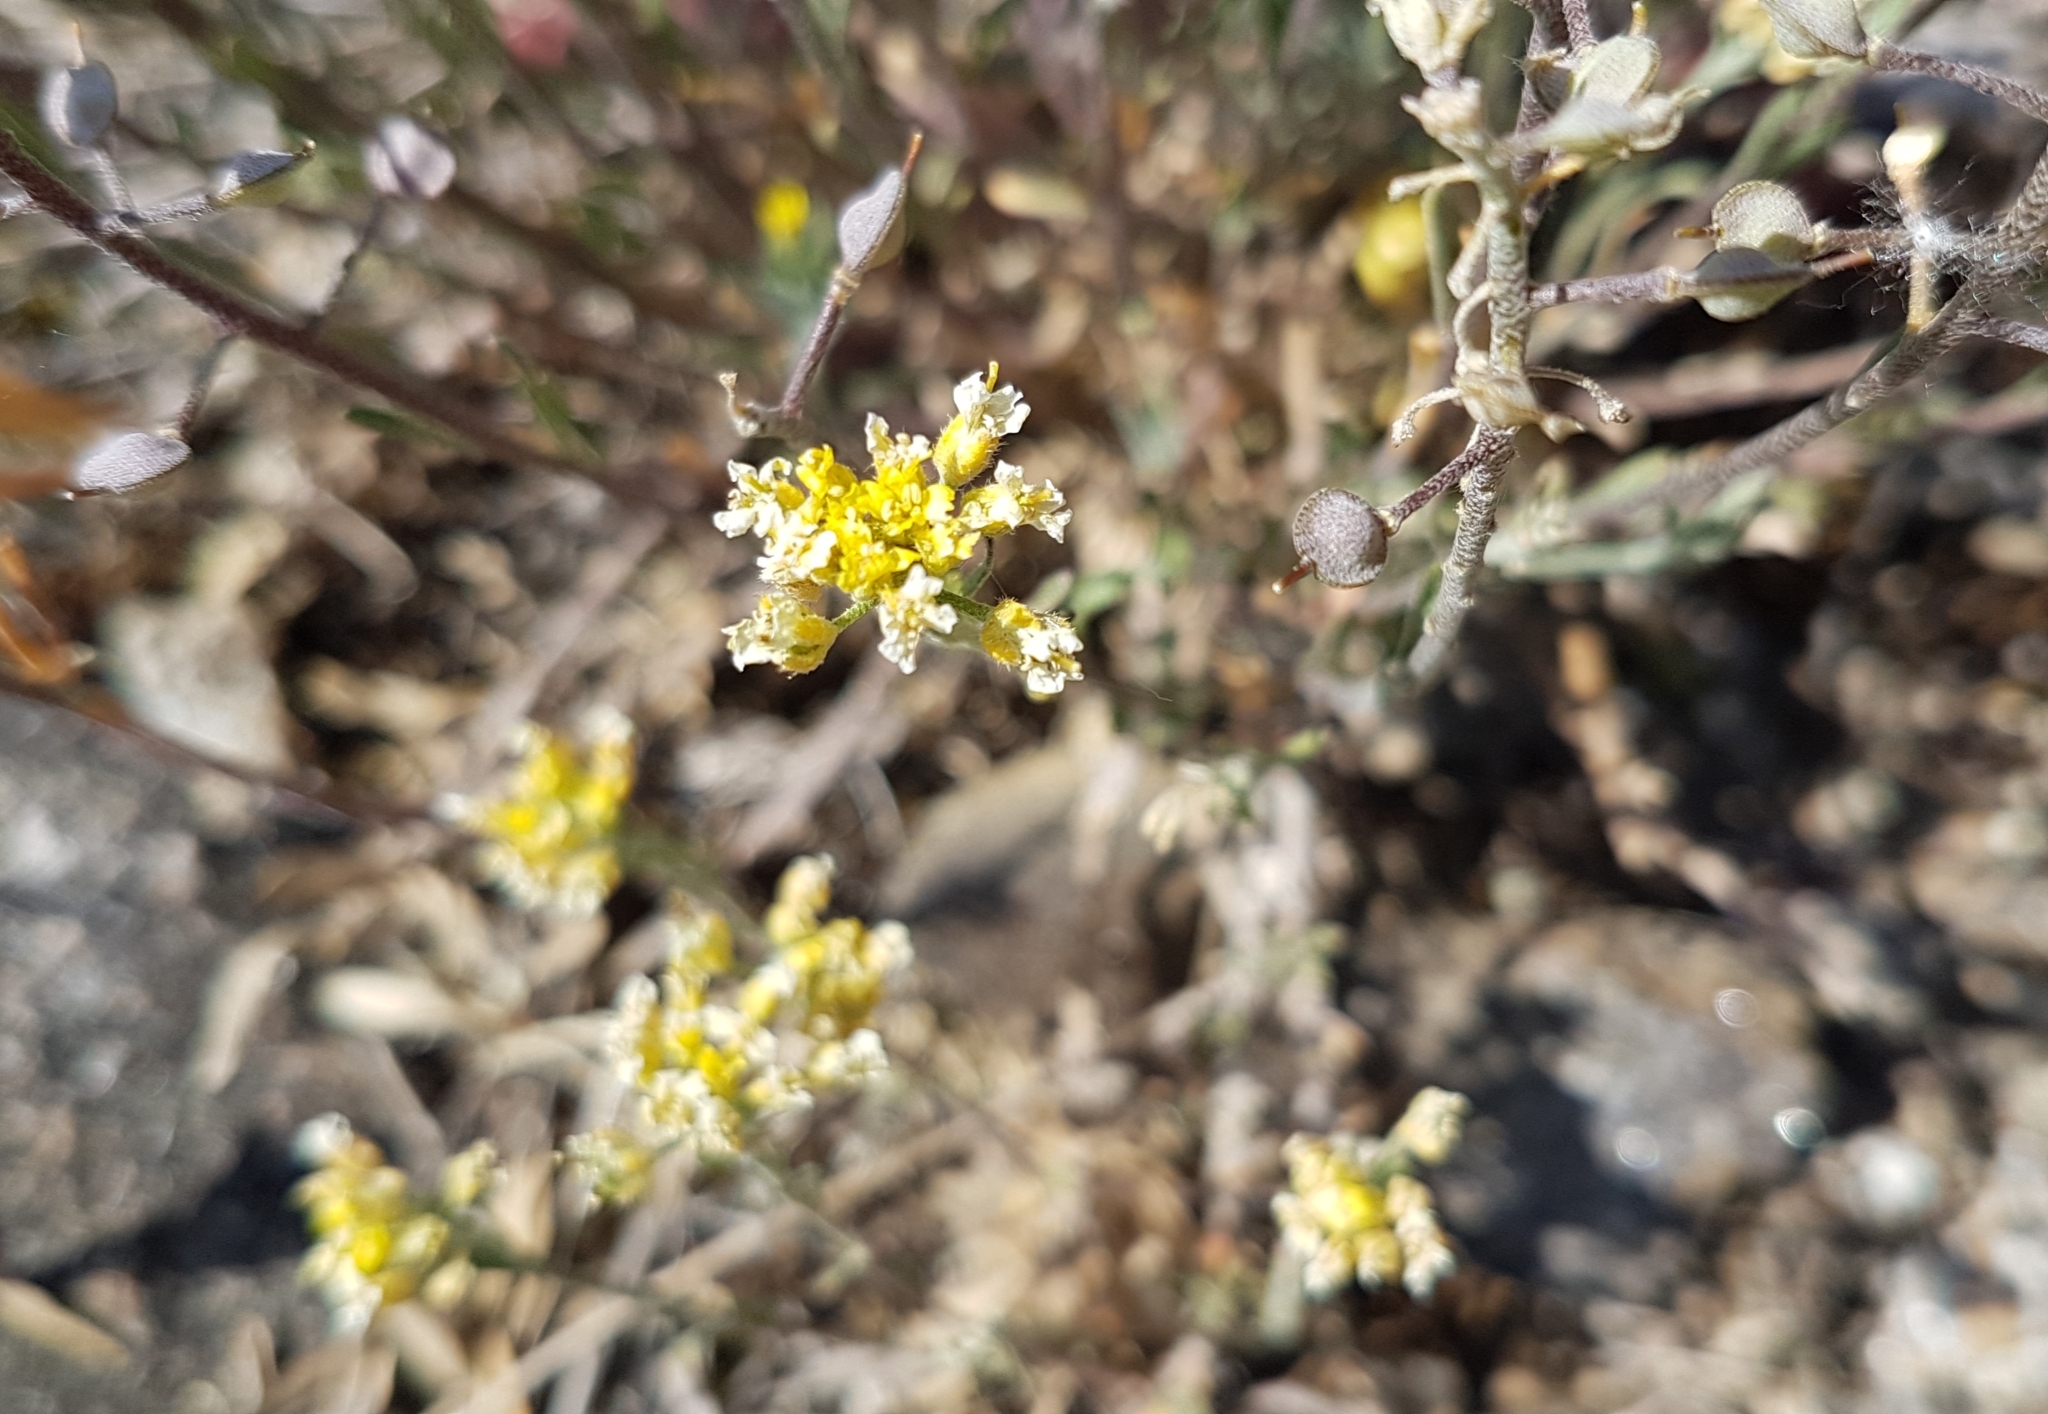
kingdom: Plantae
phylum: Tracheophyta
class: Magnoliopsida
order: Brassicales
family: Brassicaceae
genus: Alyssum
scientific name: Alyssum gmelinii
